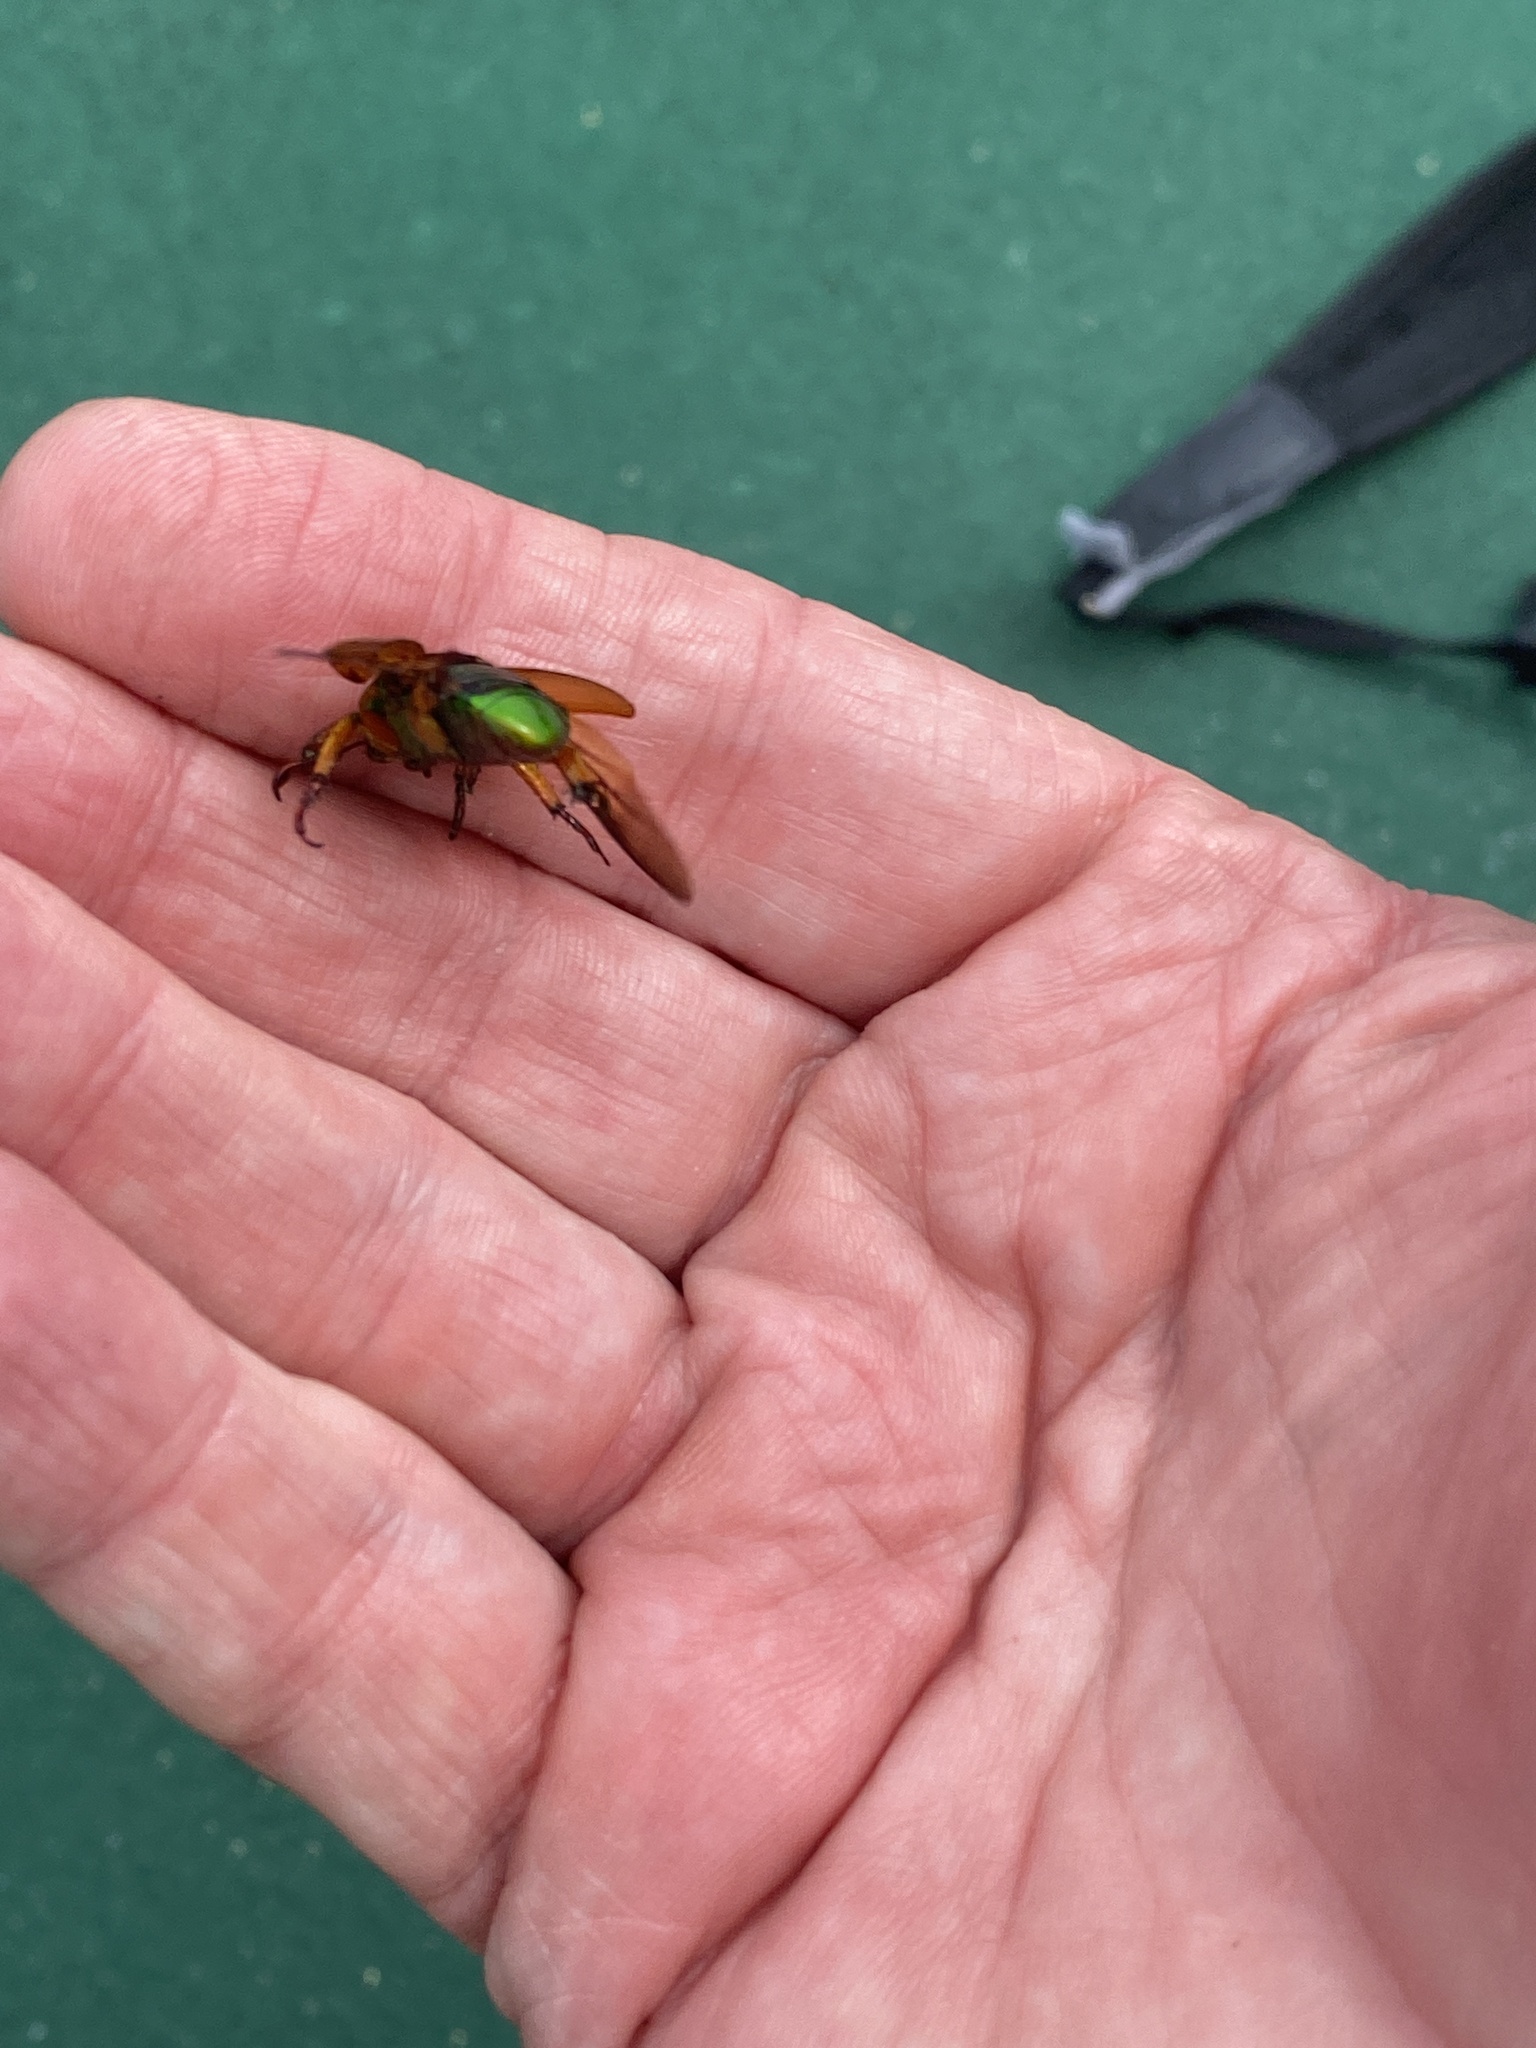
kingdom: Animalia
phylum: Arthropoda
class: Insecta
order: Coleoptera
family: Scarabaeidae
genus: Calomacraspis
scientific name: Calomacraspis haroldi
